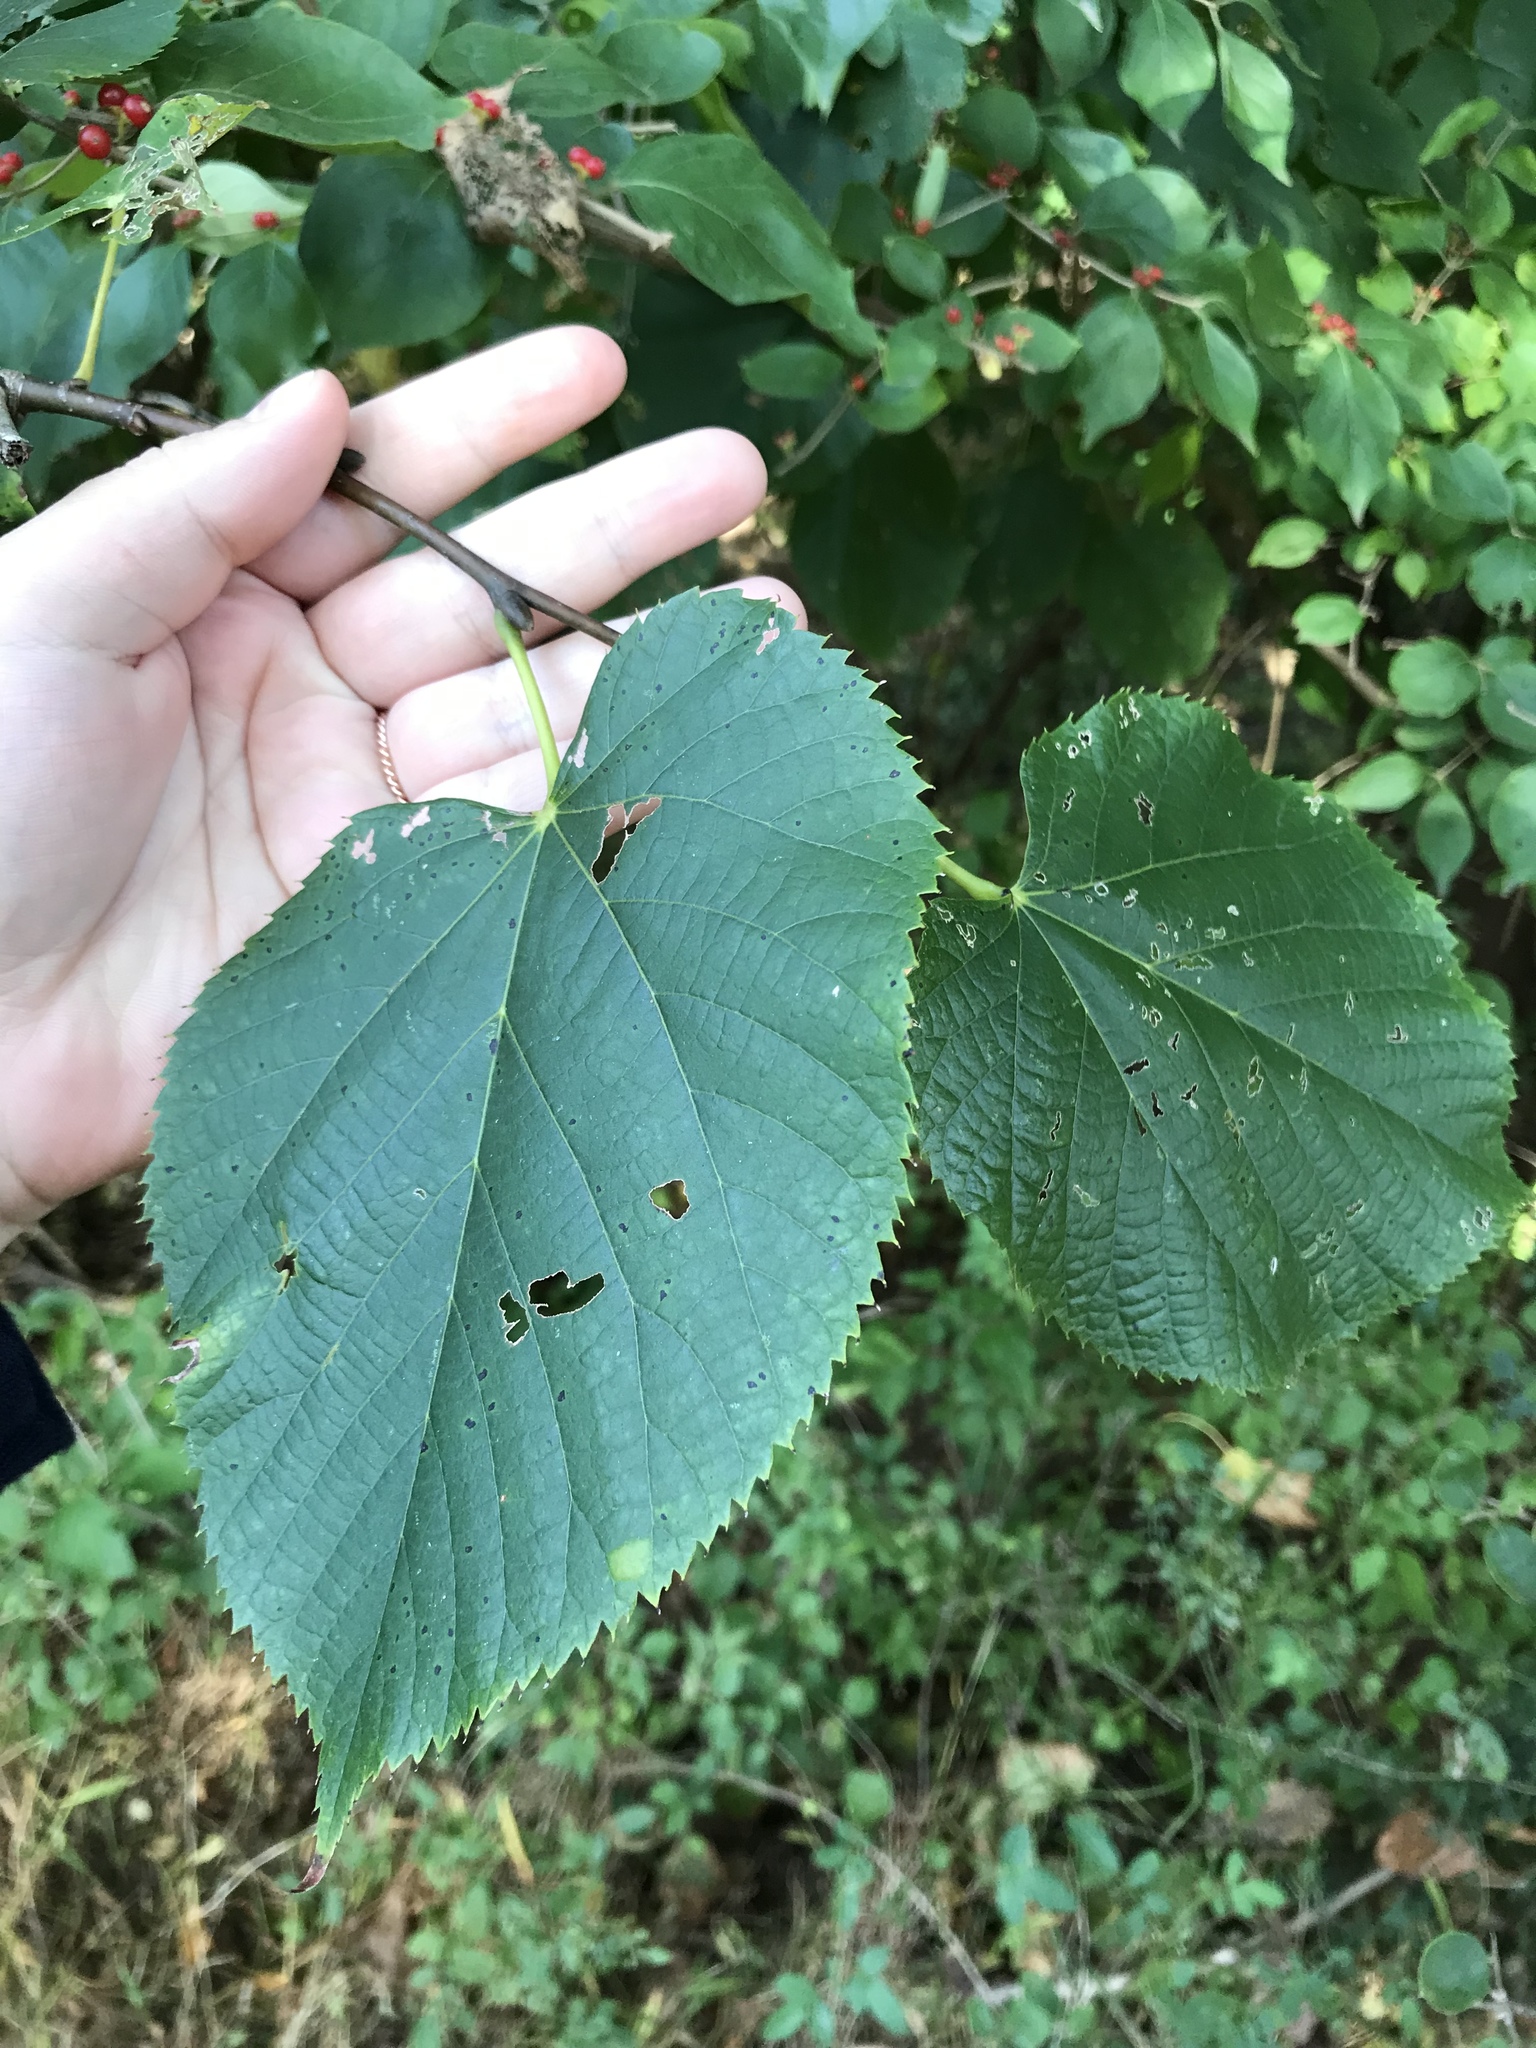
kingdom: Plantae
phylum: Tracheophyta
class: Magnoliopsida
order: Malvales
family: Malvaceae
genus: Tilia
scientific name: Tilia americana
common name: Basswood
